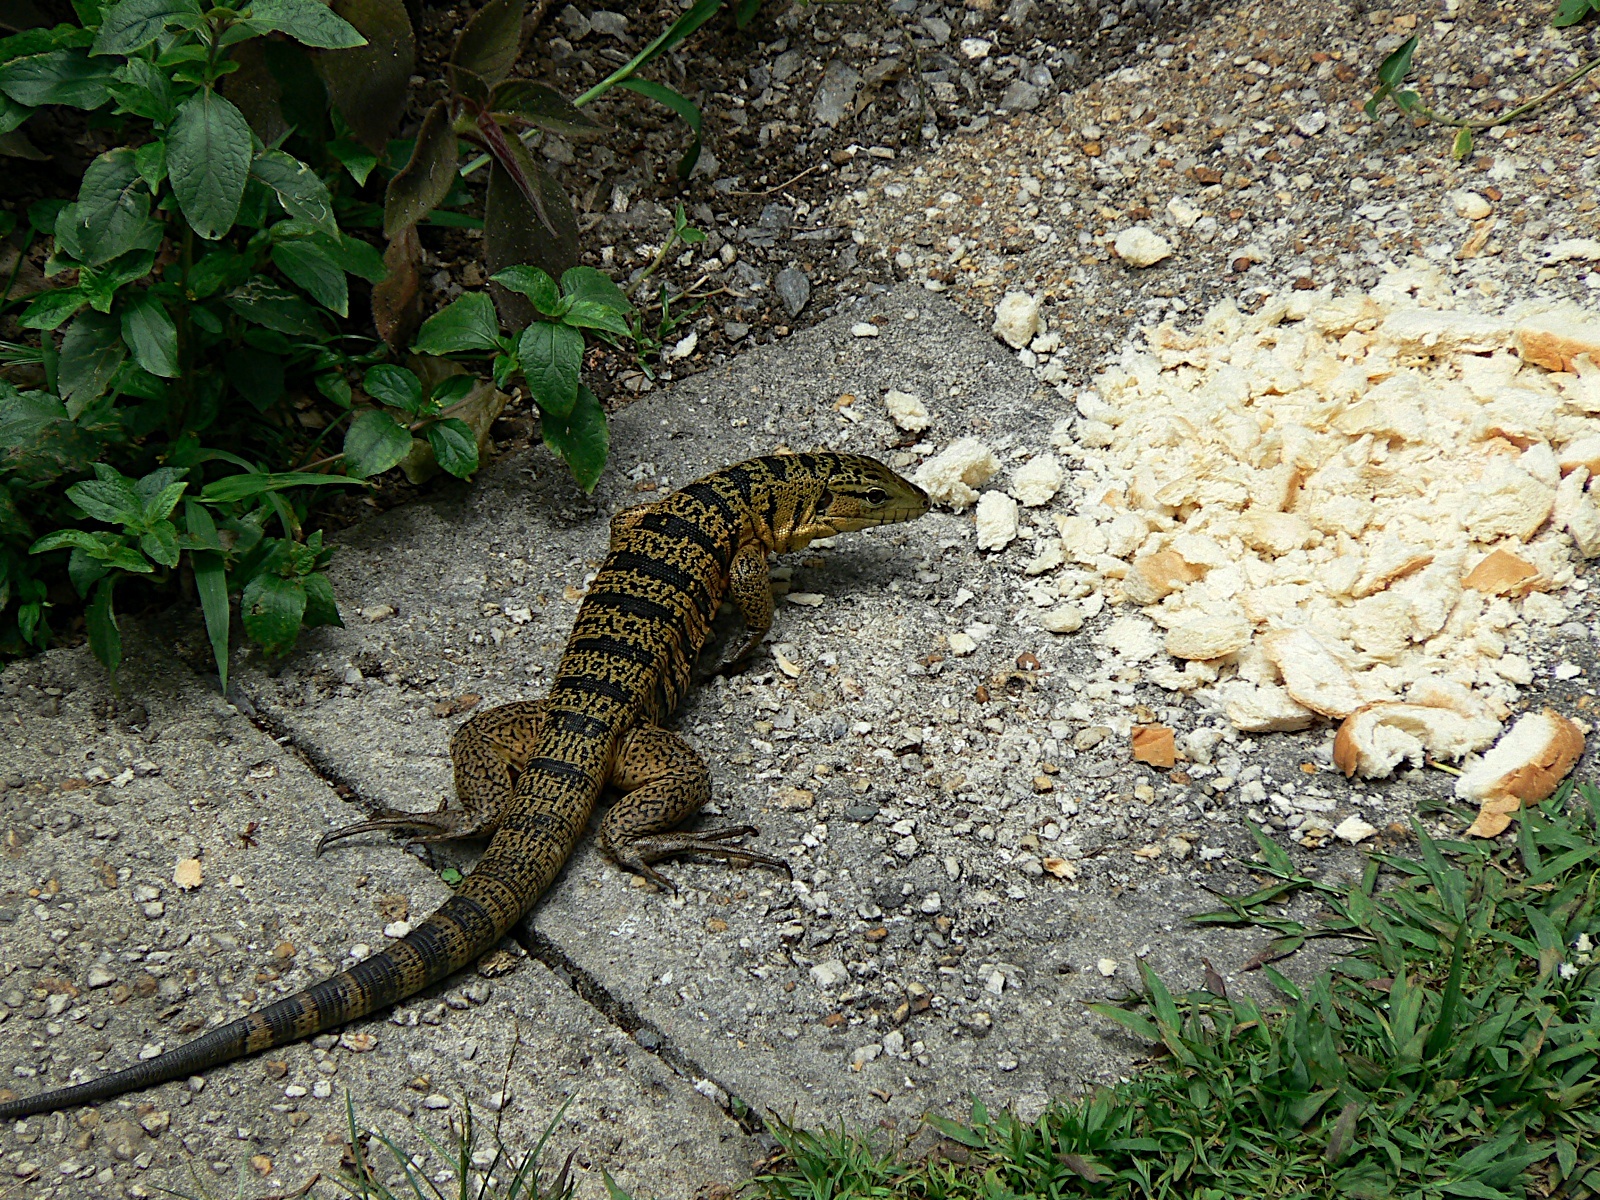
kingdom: Animalia
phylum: Chordata
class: Squamata
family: Teiidae
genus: Tupinambis
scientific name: Tupinambis cryptus
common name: Cryptic golden tegu
